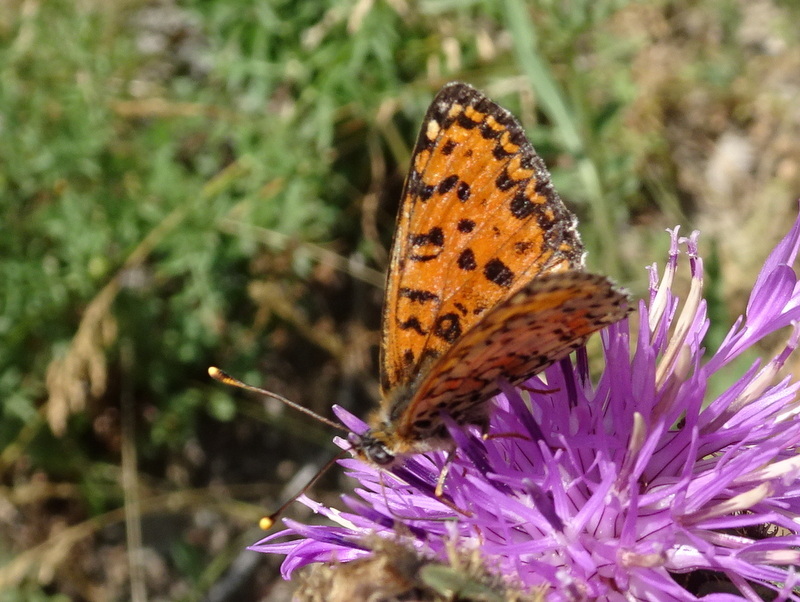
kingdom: Animalia
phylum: Arthropoda
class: Insecta
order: Lepidoptera
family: Nymphalidae
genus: Melitaea
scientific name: Melitaea didyma
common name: Spotted fritillary
